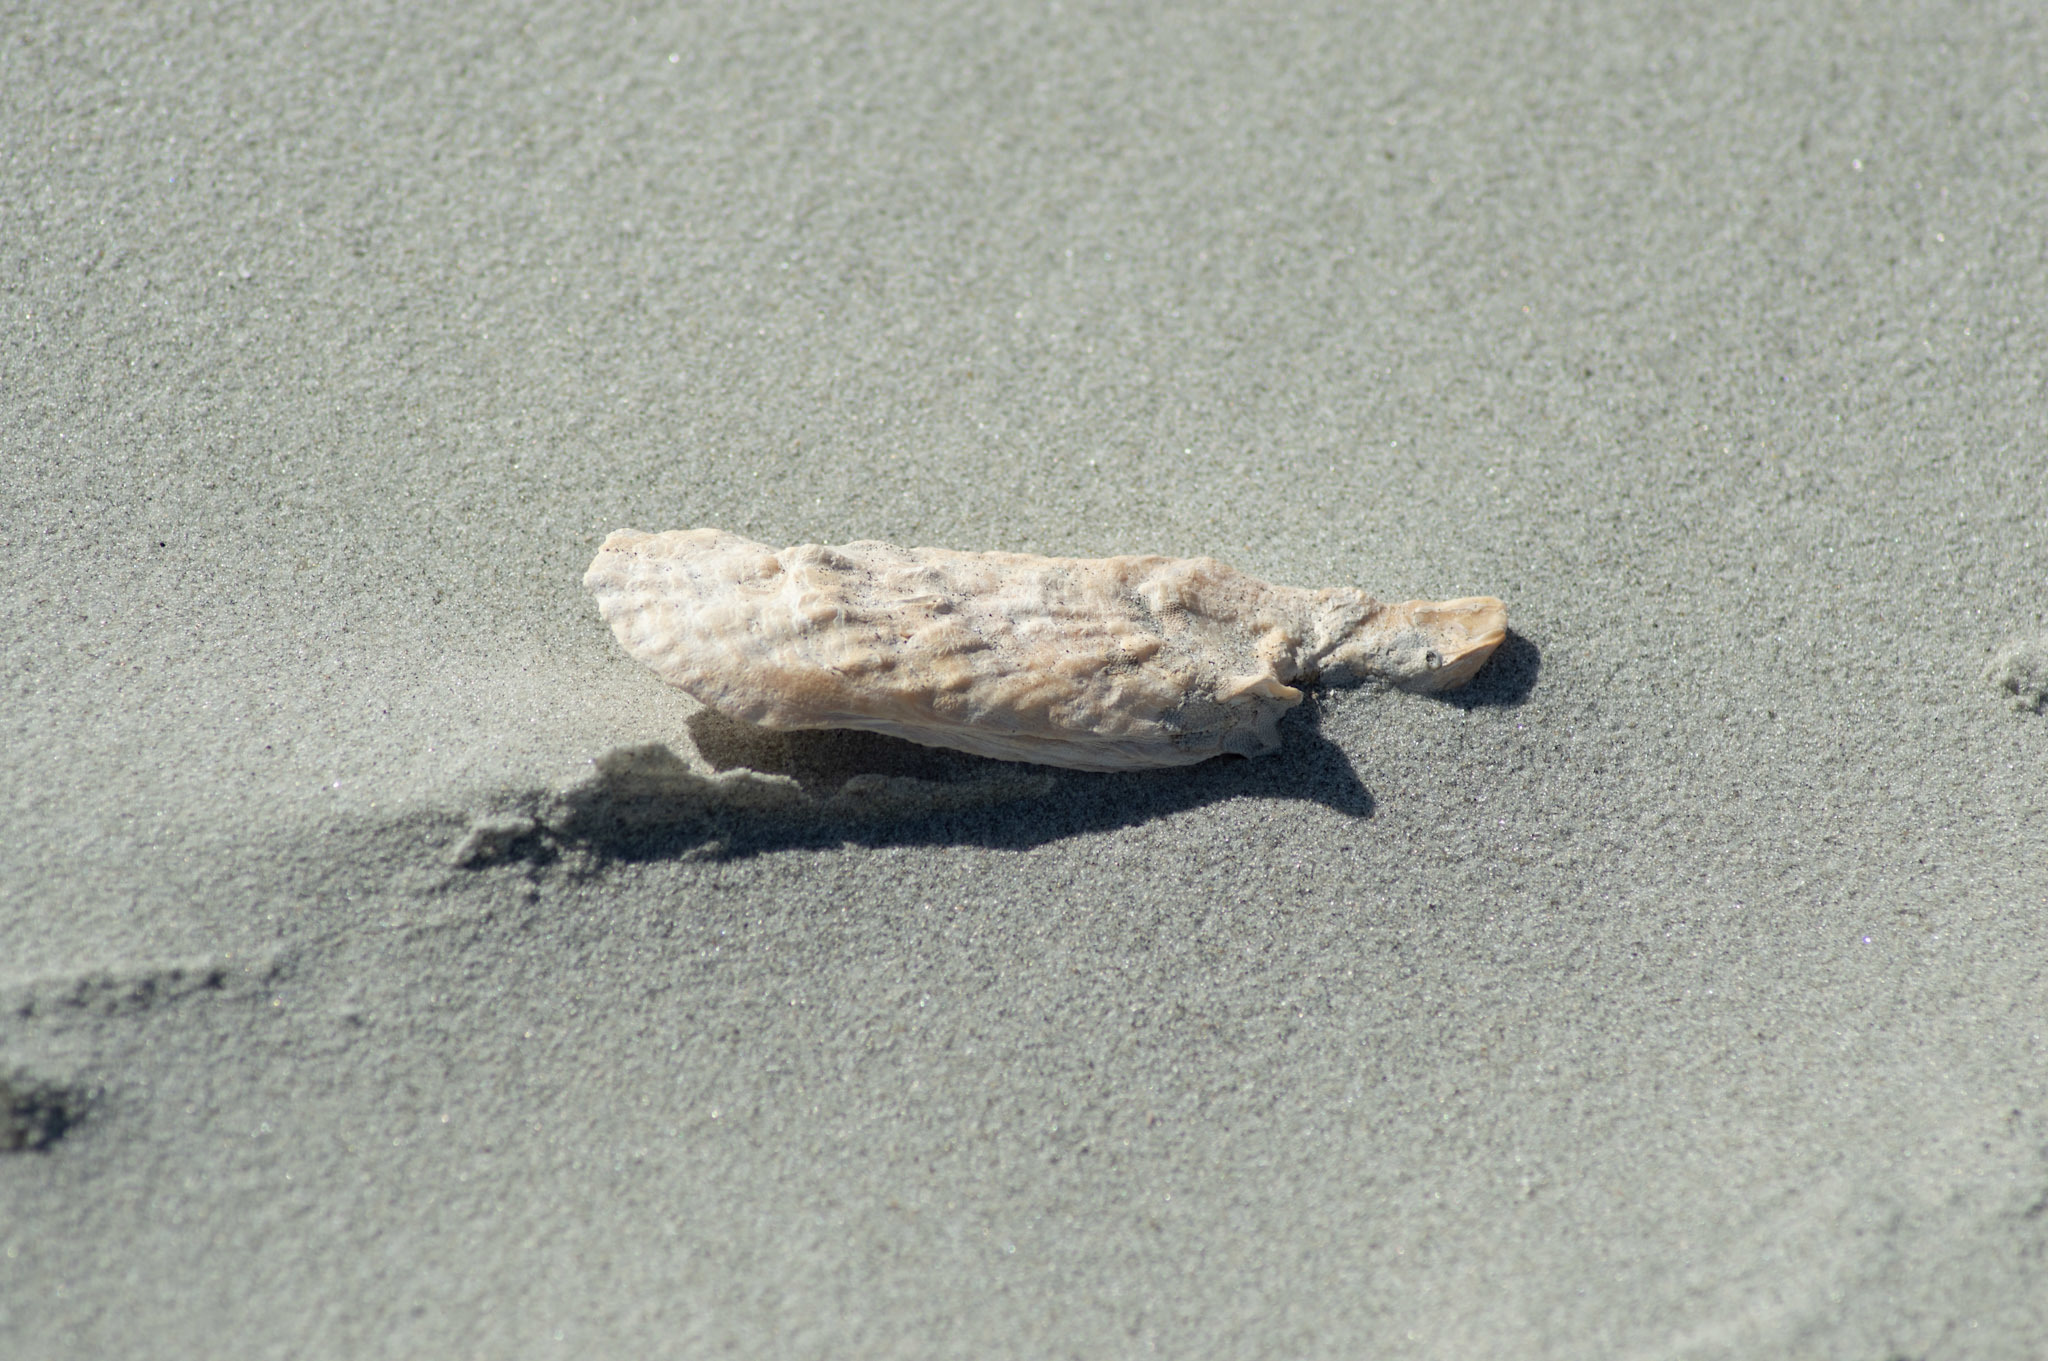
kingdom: Animalia
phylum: Mollusca
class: Bivalvia
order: Ostreida
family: Ostreidae
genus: Crassostrea
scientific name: Crassostrea virginica
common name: American oyster
